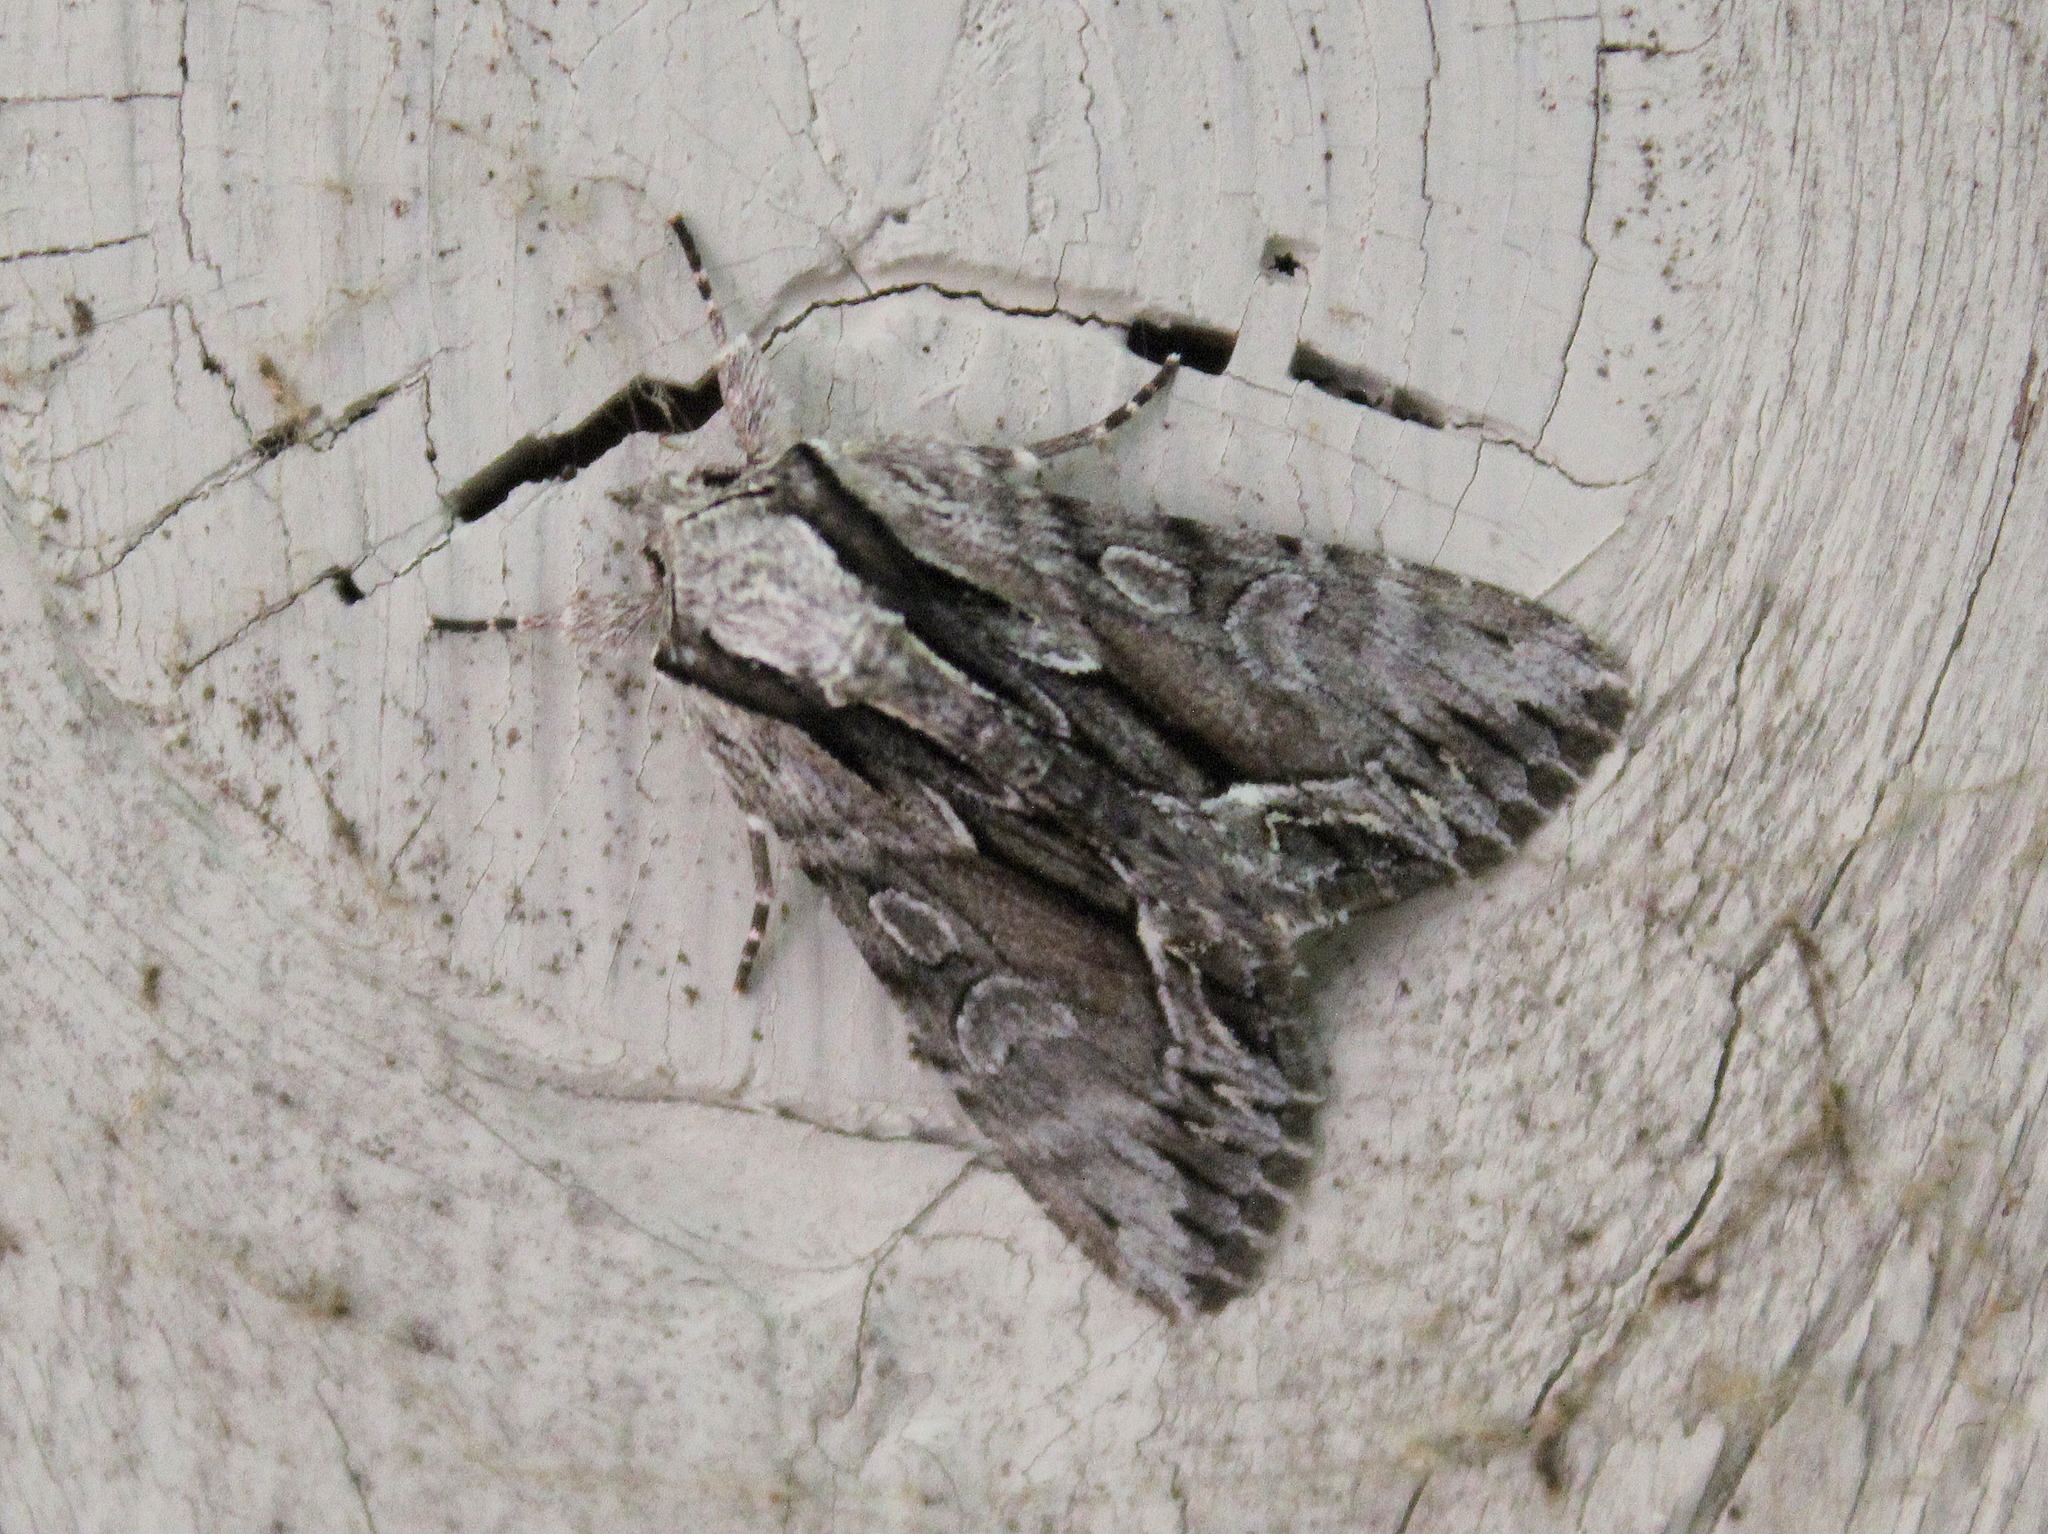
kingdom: Animalia
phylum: Arthropoda
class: Insecta
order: Lepidoptera
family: Noctuidae
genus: Hyppa
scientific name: Hyppa xylinoides
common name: Common hyppa moth
